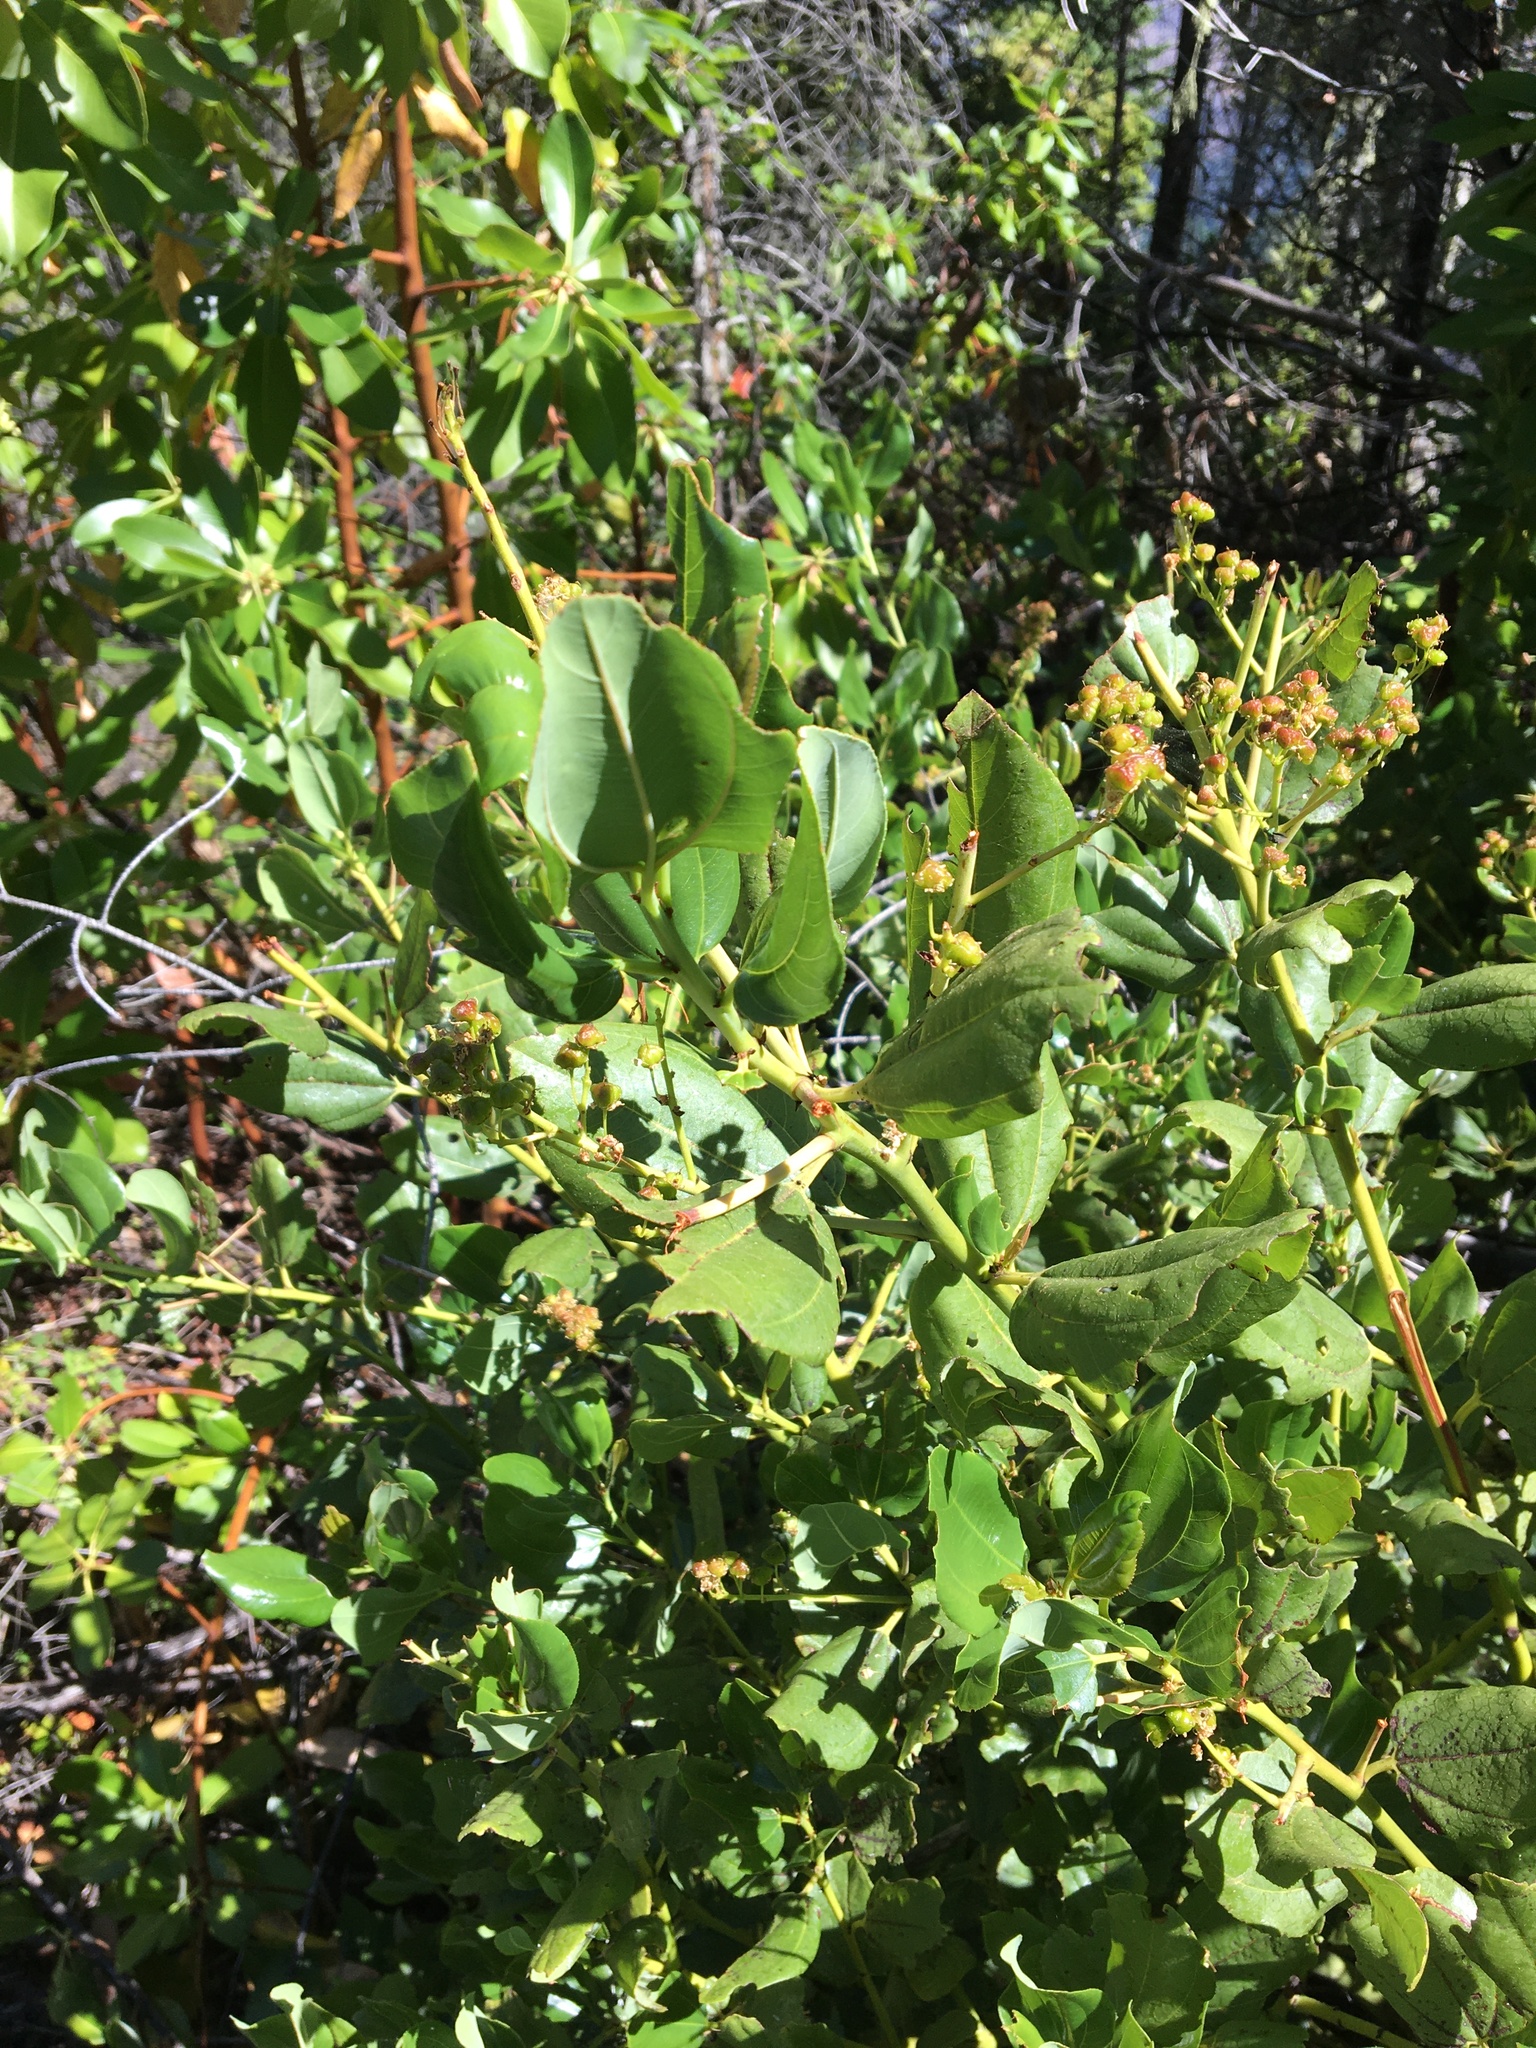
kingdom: Plantae
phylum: Tracheophyta
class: Magnoliopsida
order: Rosales
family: Rhamnaceae
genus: Ceanothus
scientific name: Ceanothus velutinus
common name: Snowbrush
